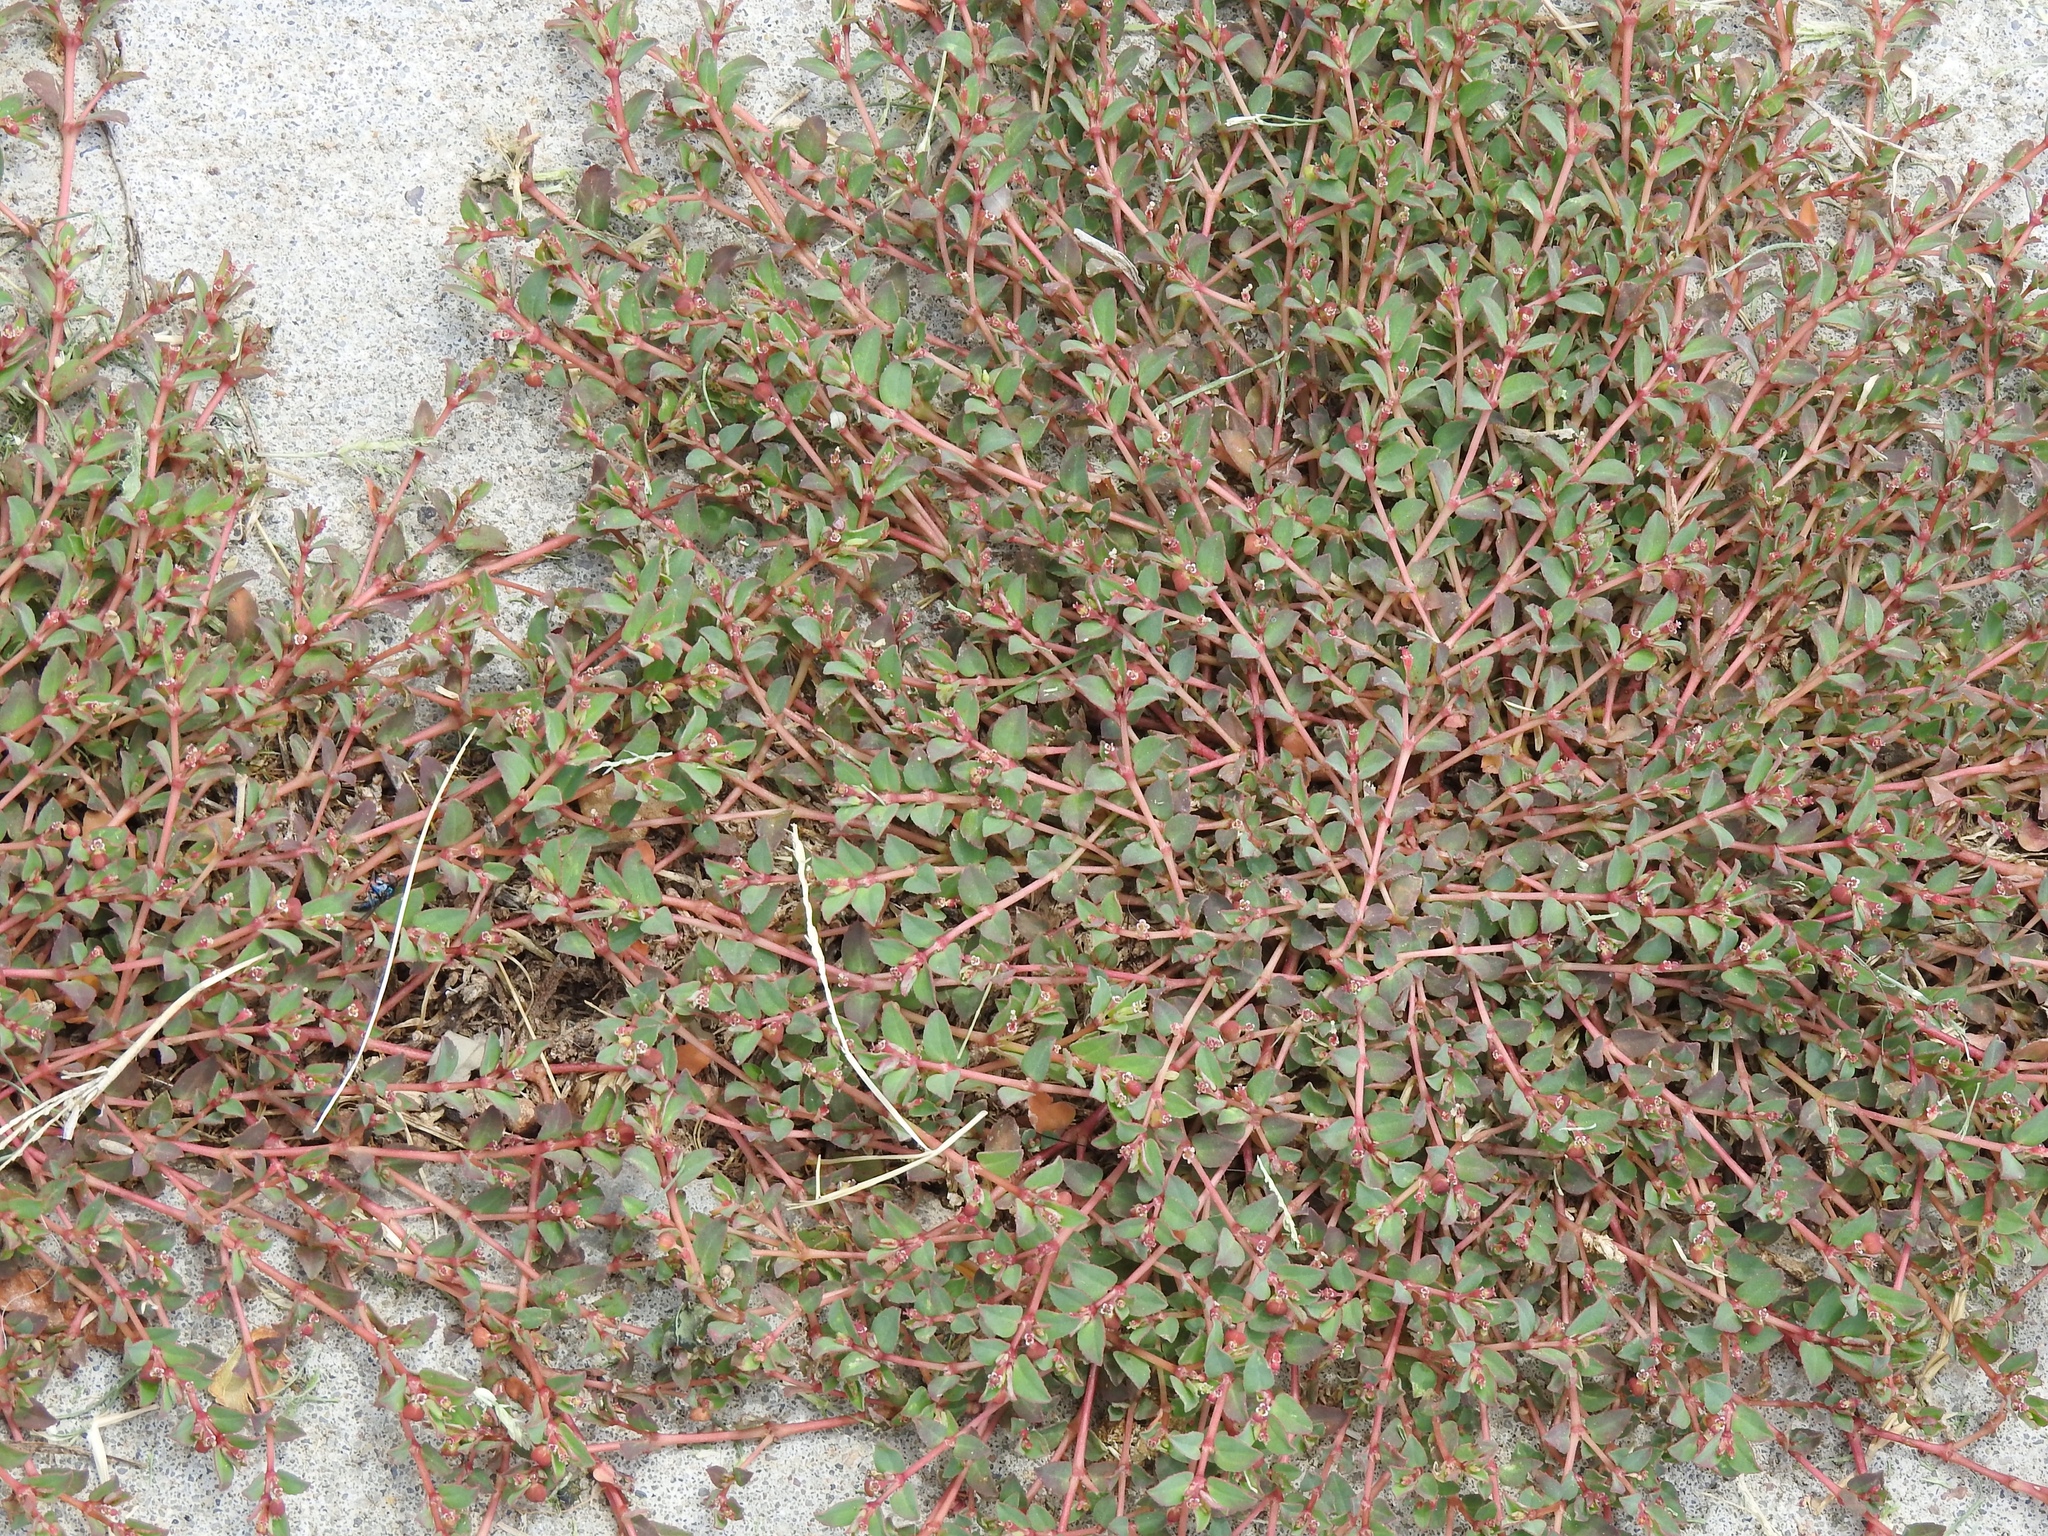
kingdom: Plantae
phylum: Tracheophyta
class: Magnoliopsida
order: Malpighiales
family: Euphorbiaceae
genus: Euphorbia
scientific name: Euphorbia vermiculata
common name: Hairy spurge
